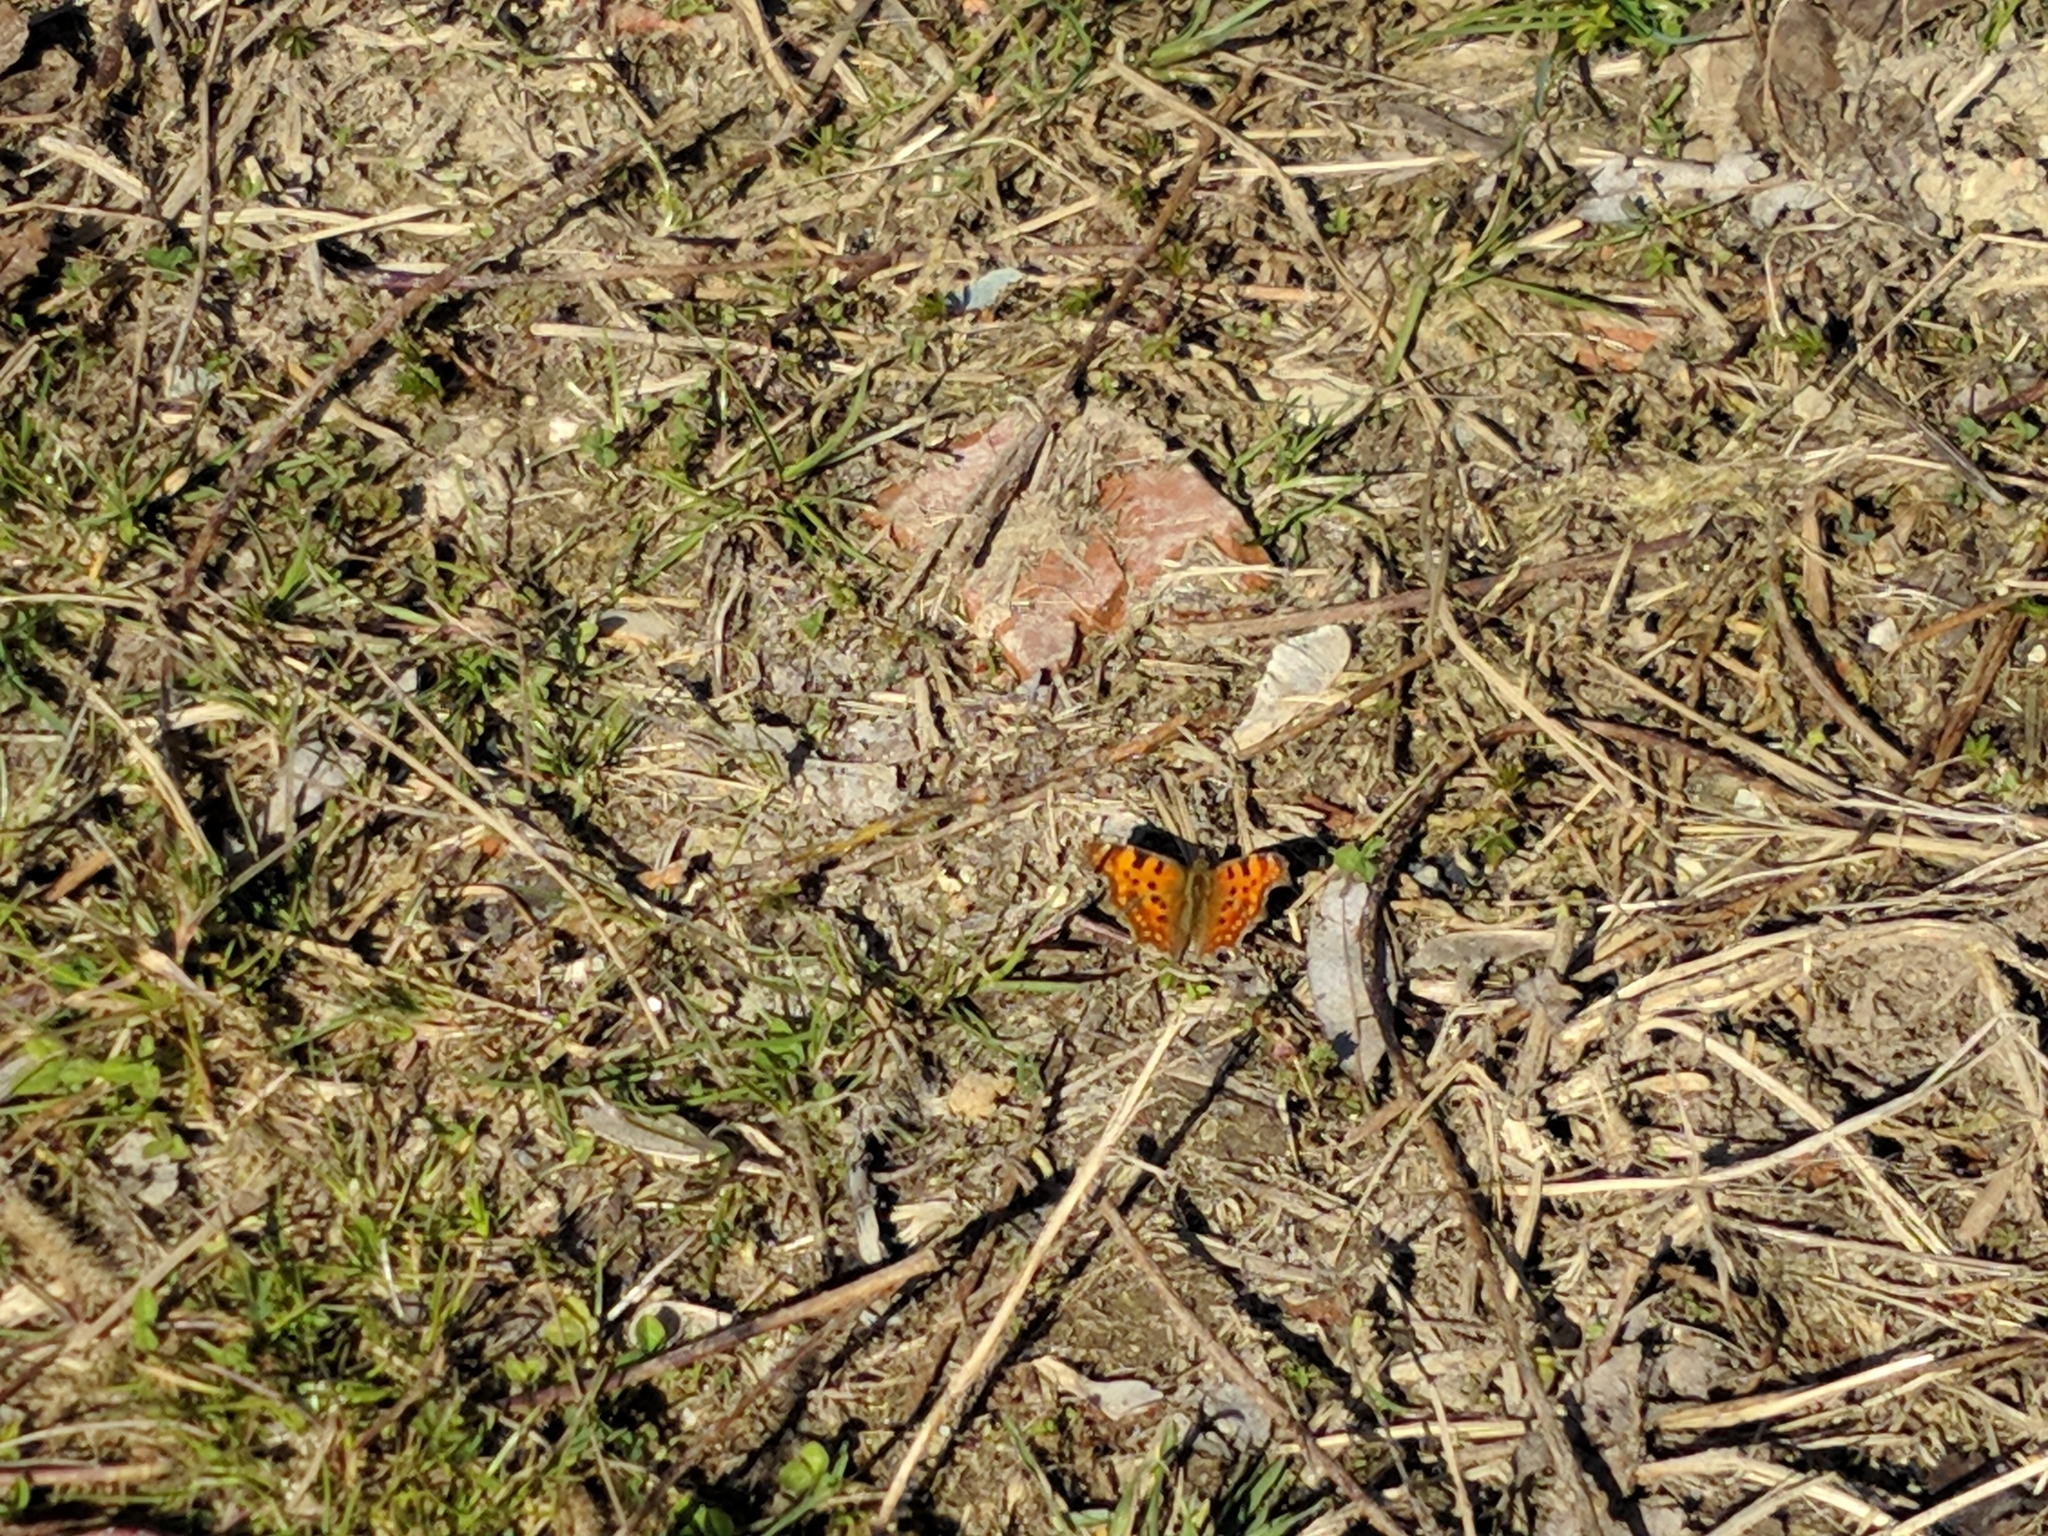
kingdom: Animalia
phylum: Arthropoda
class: Insecta
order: Lepidoptera
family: Nymphalidae
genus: Polygonia
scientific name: Polygonia c-album
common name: Comma
